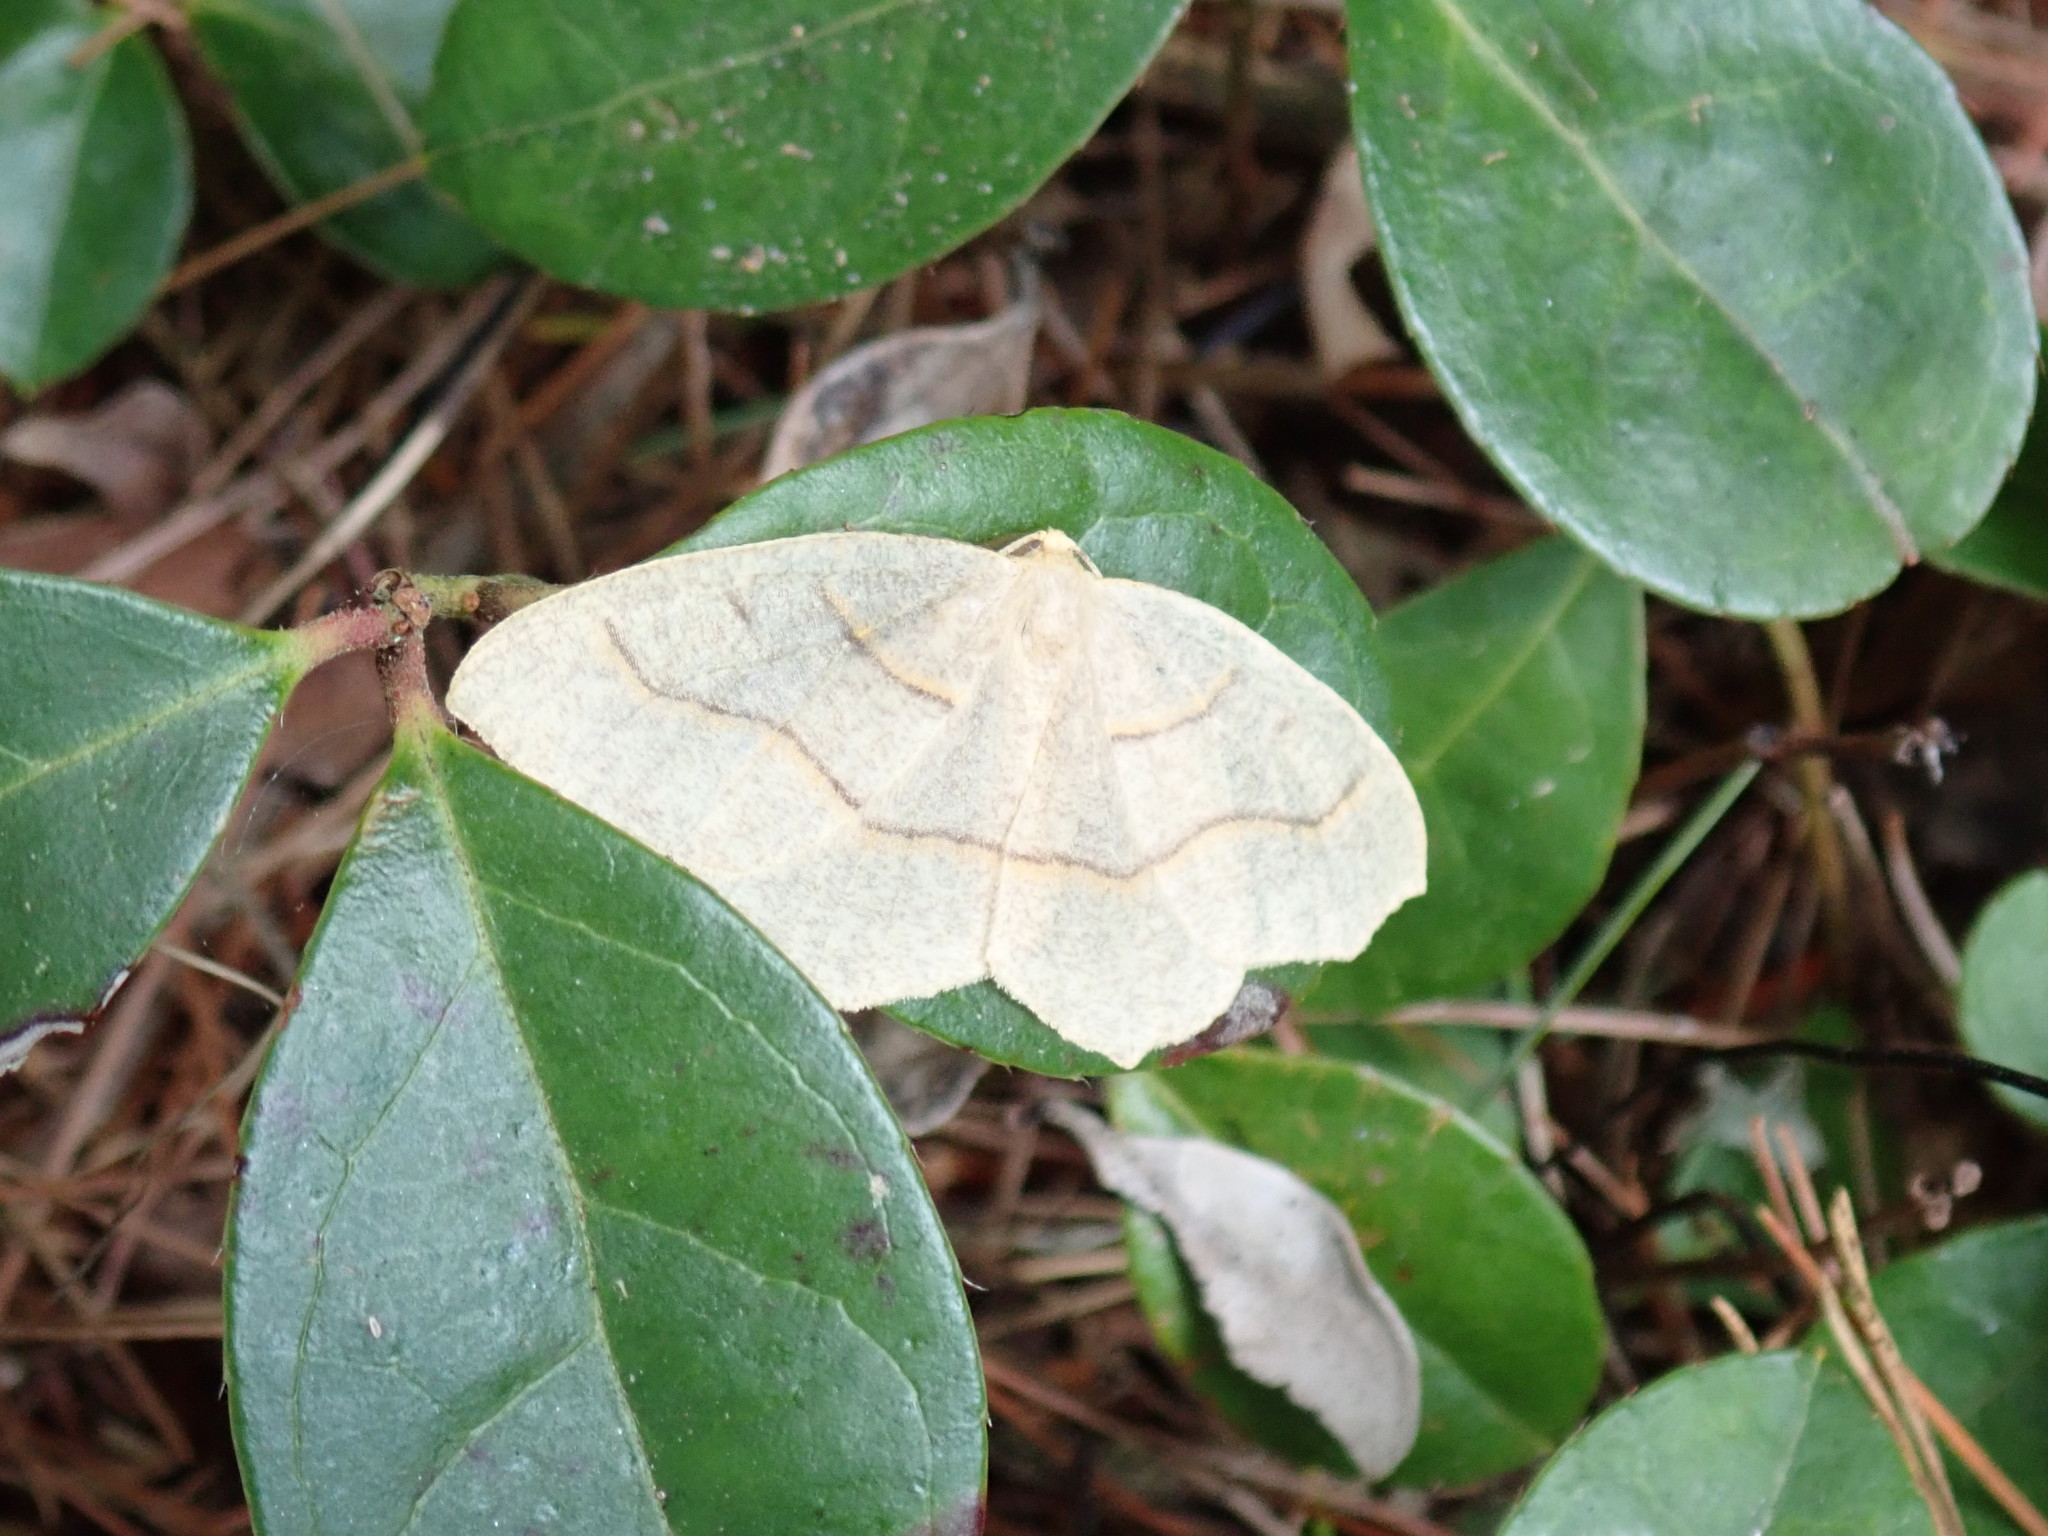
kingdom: Animalia
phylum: Arthropoda
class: Insecta
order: Lepidoptera
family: Geometridae
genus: Lambdina
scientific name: Lambdina fiscellaria
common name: Hemlock looper
